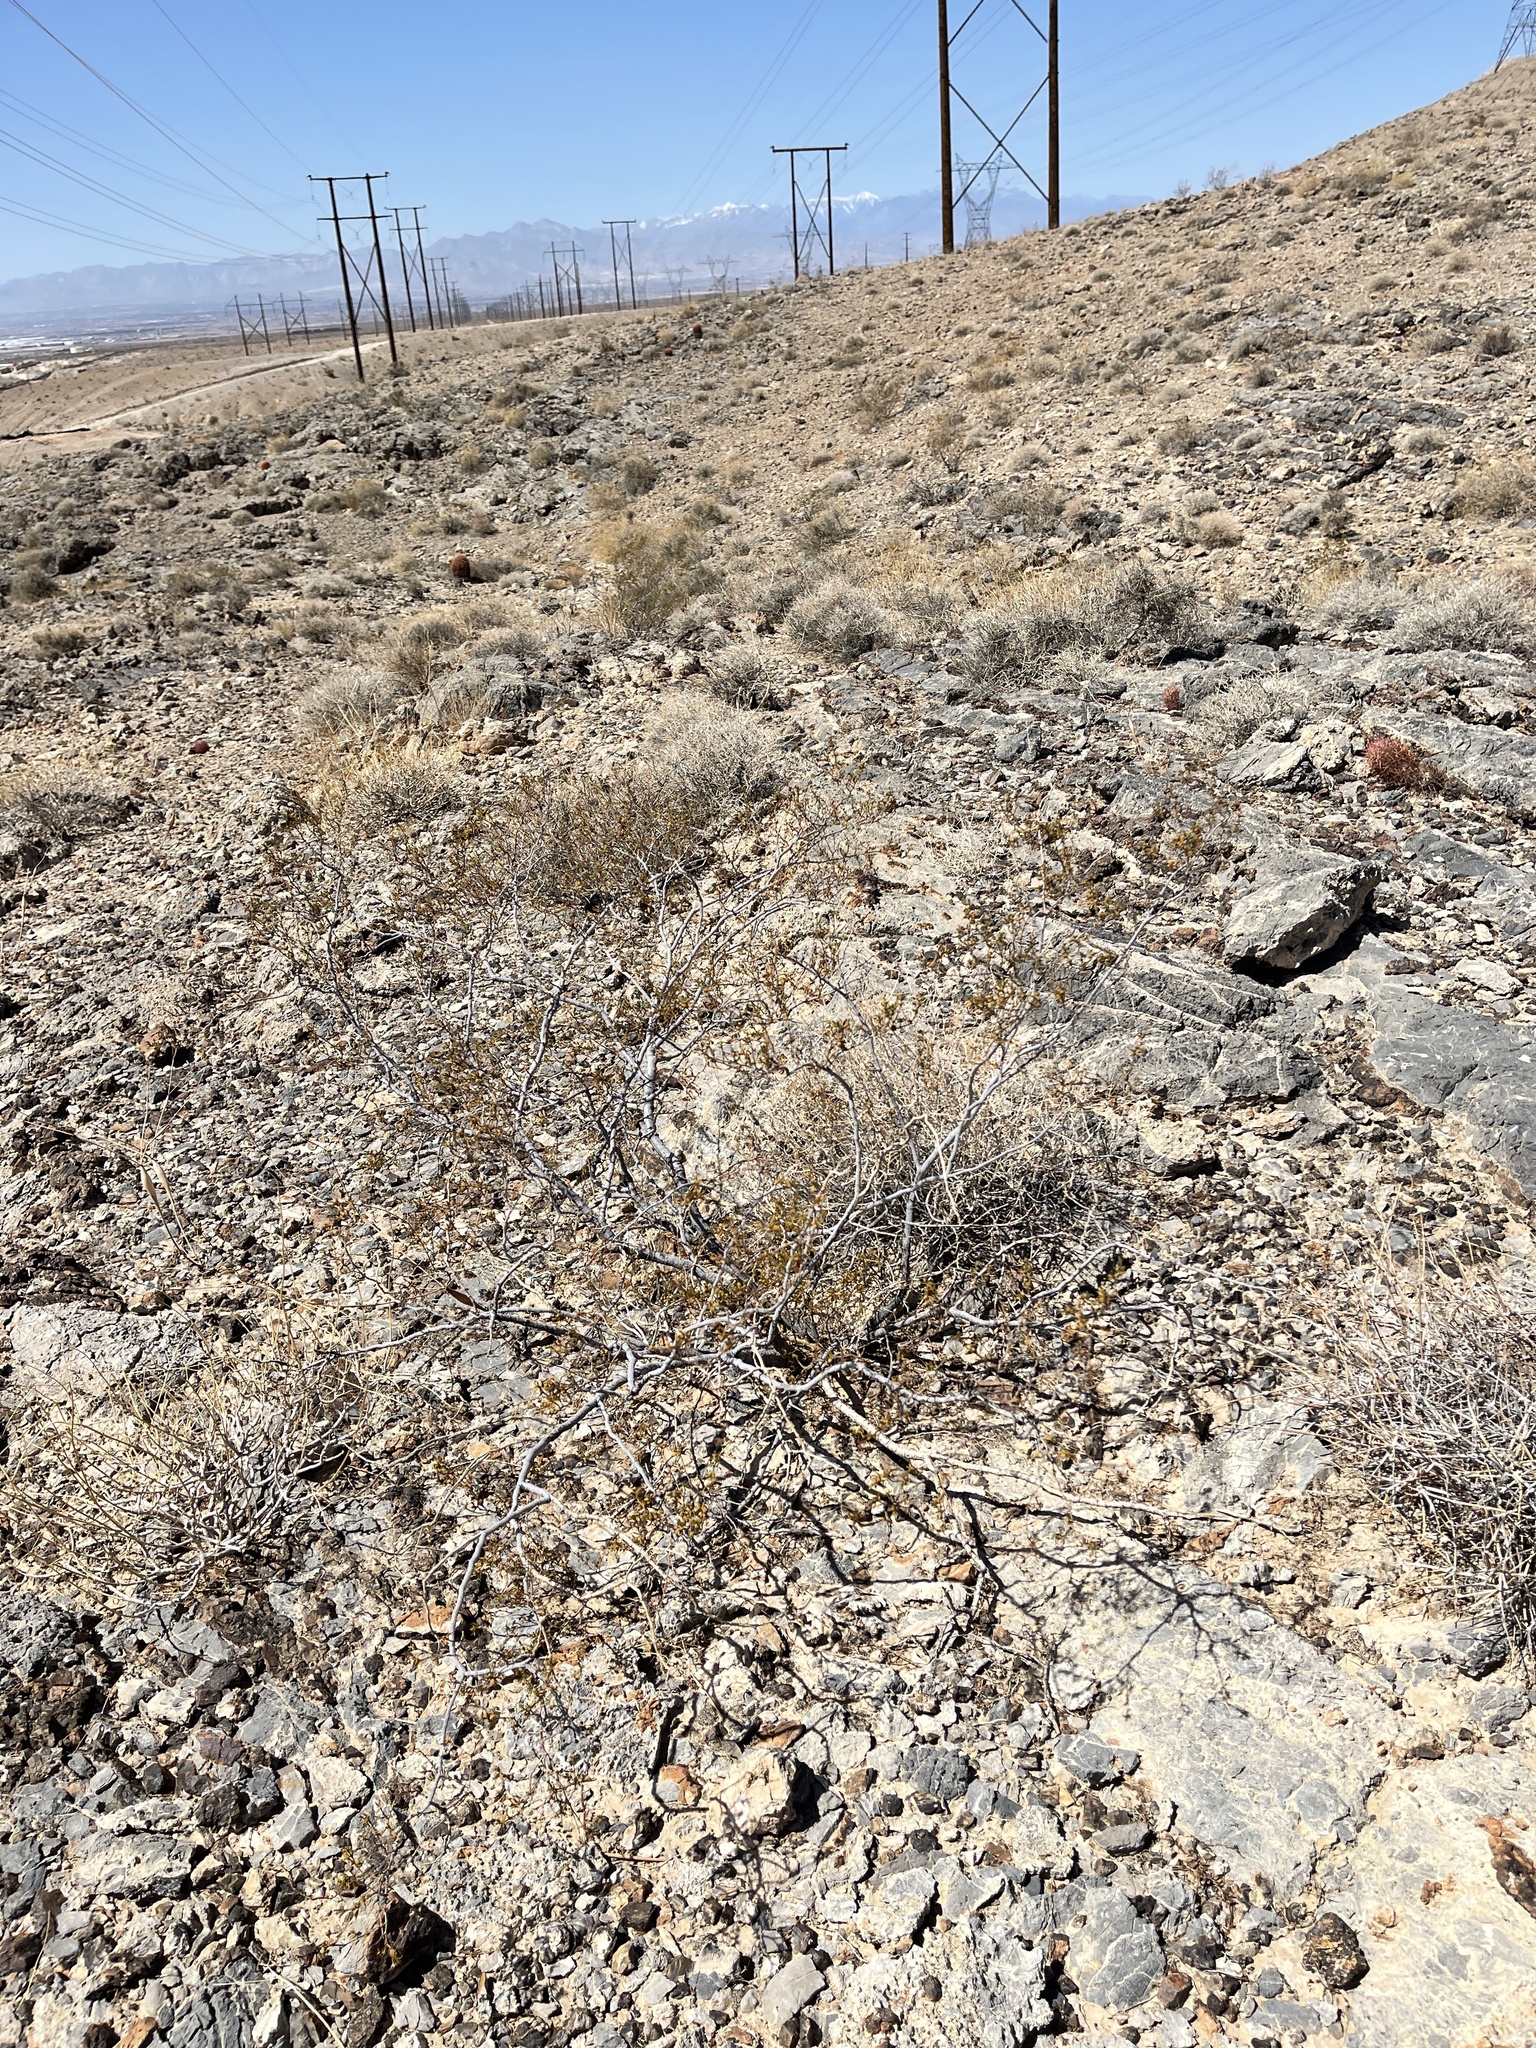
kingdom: Plantae
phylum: Tracheophyta
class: Magnoliopsida
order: Zygophyllales
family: Zygophyllaceae
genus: Larrea
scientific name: Larrea tridentata
